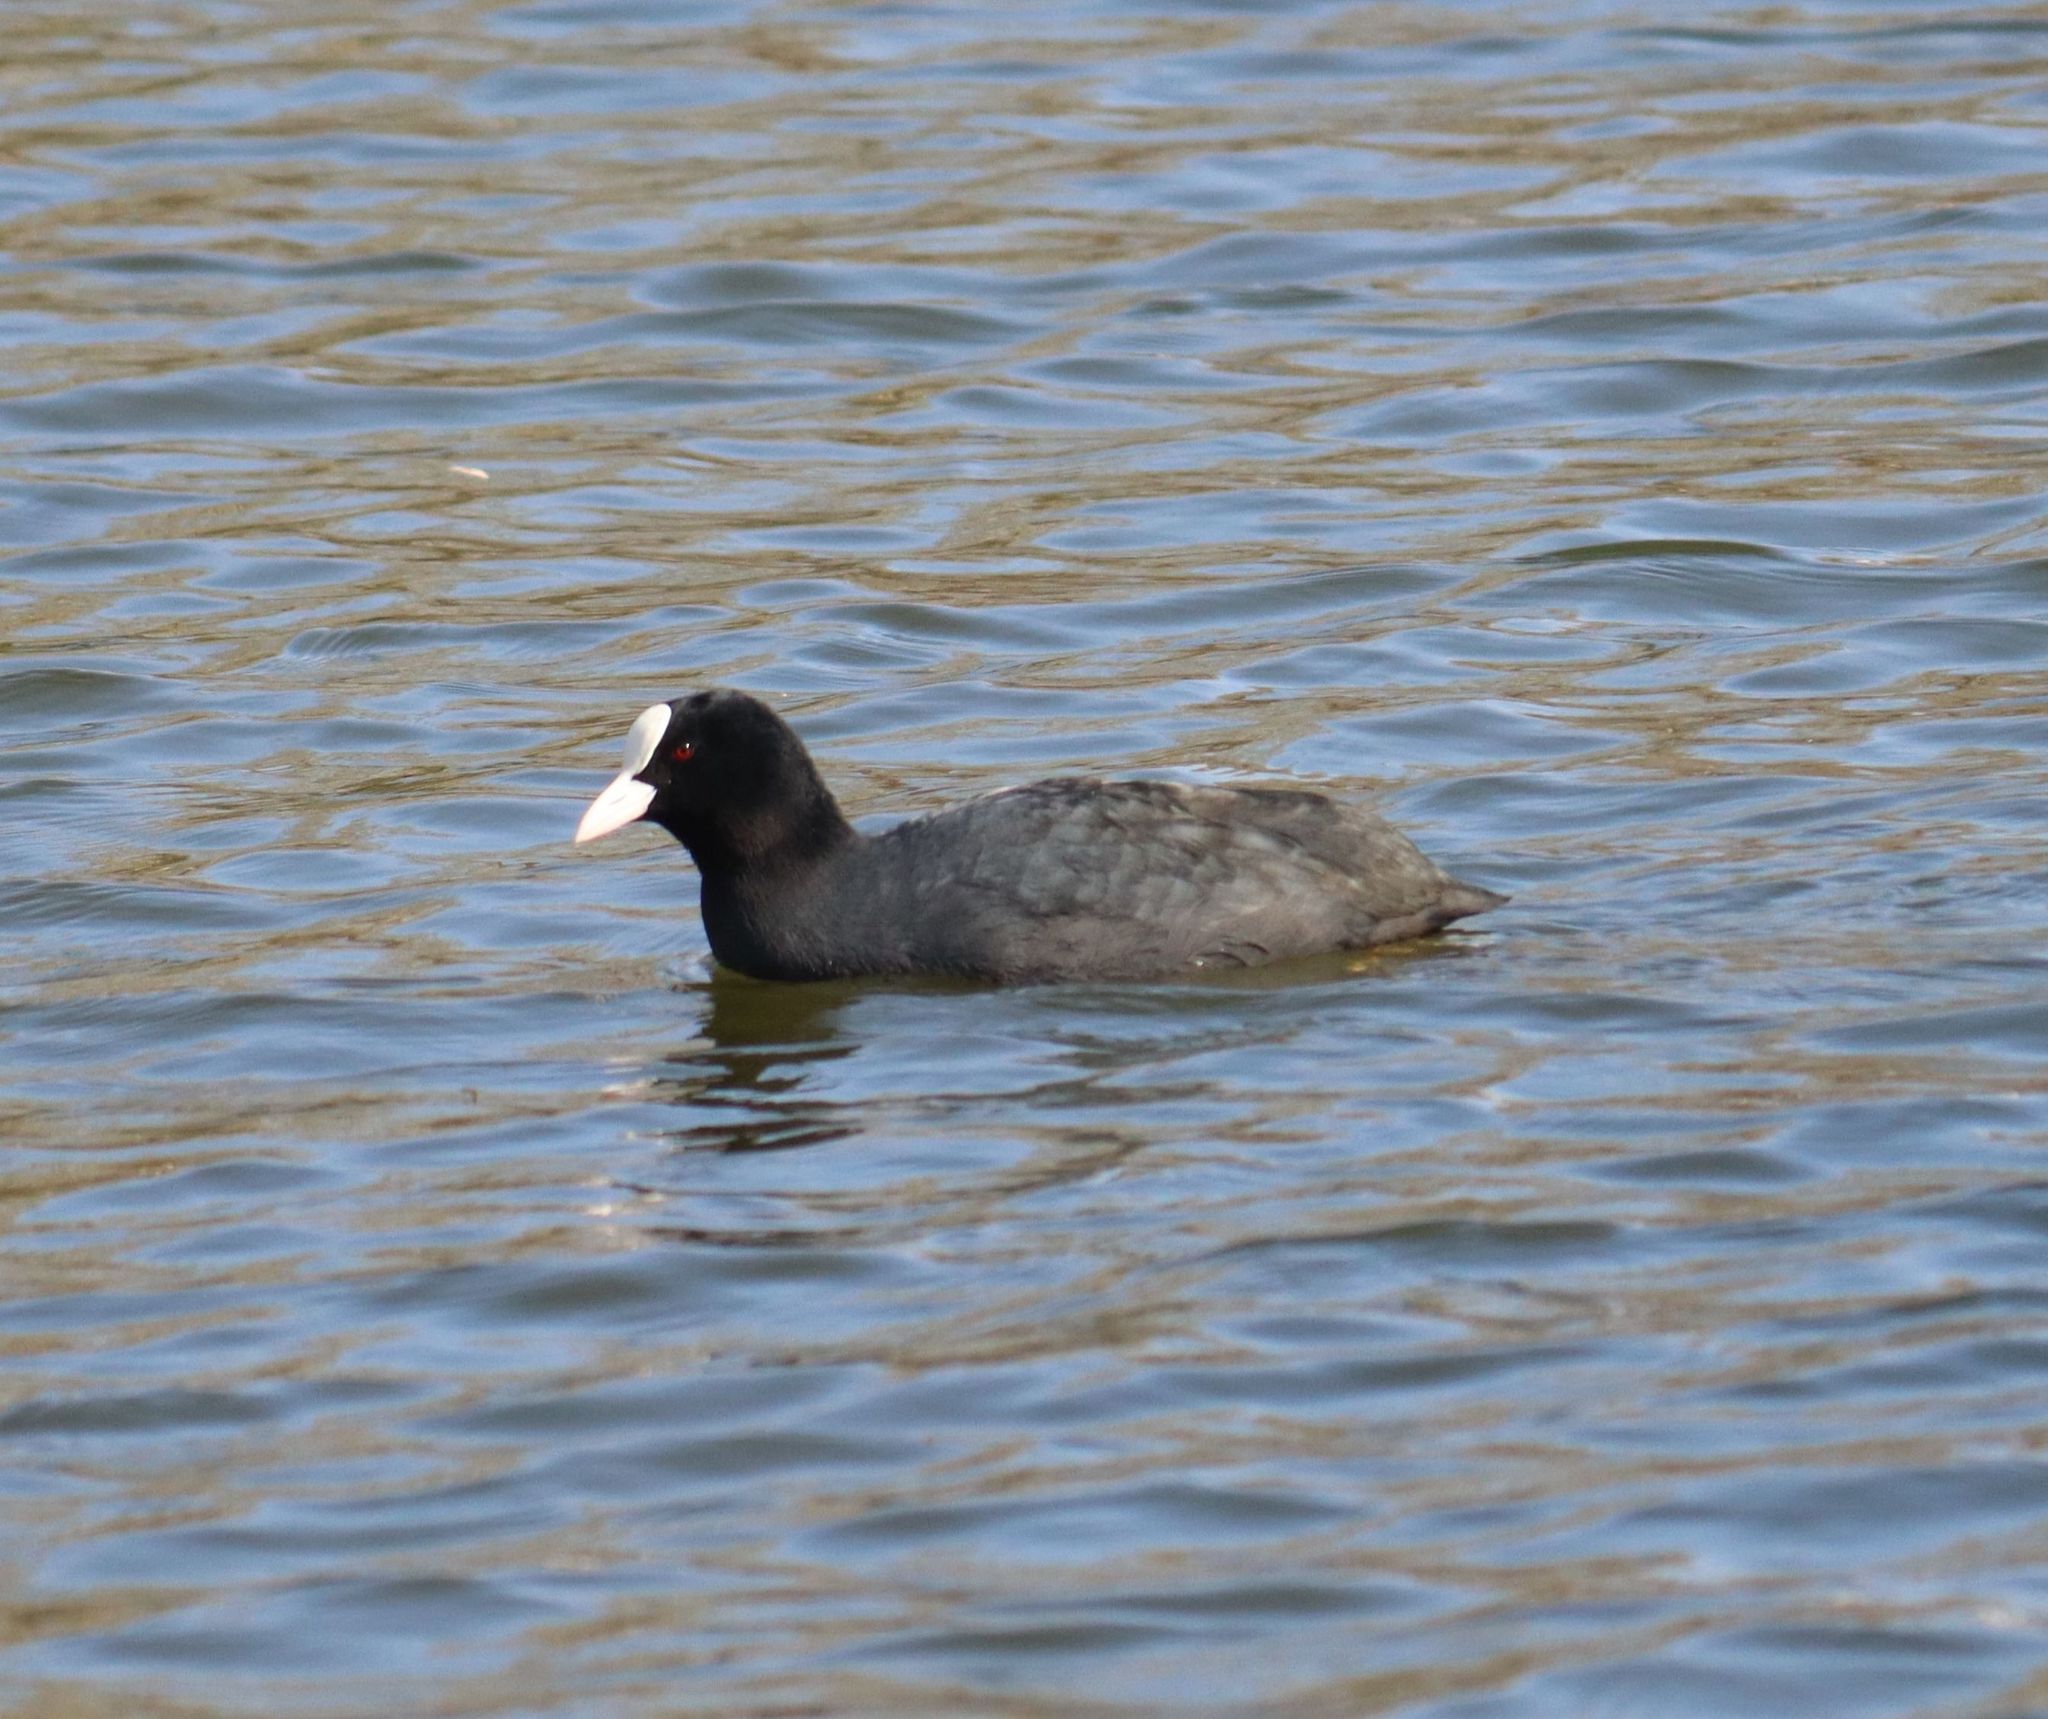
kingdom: Animalia
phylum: Chordata
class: Aves
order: Gruiformes
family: Rallidae
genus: Fulica
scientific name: Fulica atra
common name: Eurasian coot
